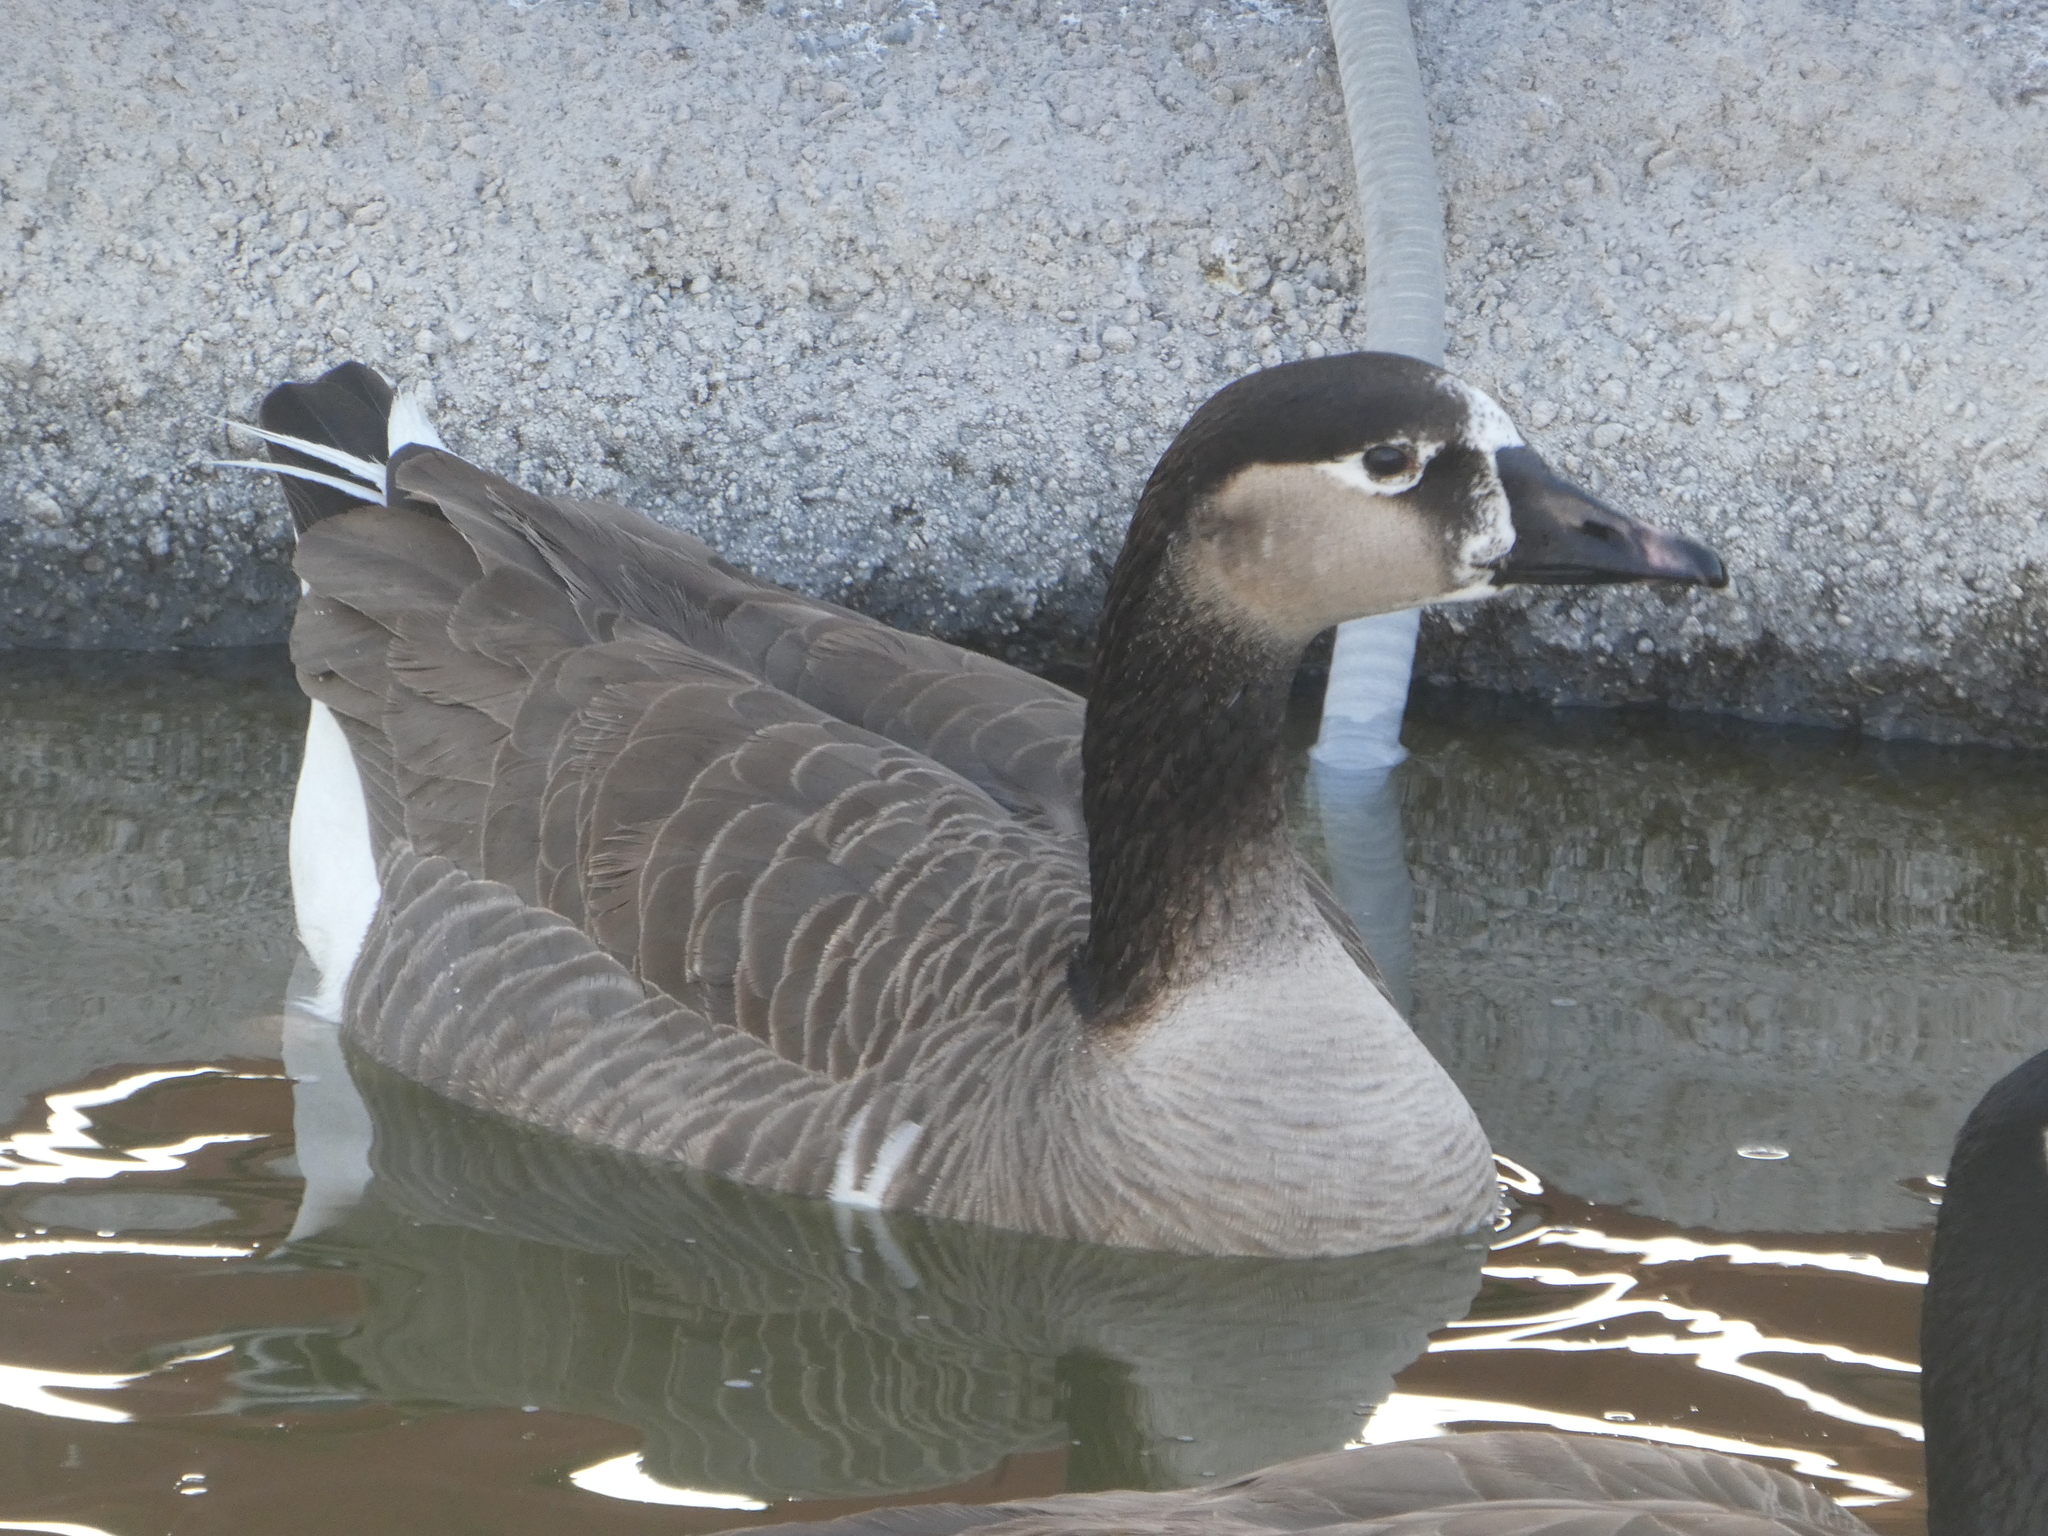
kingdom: Animalia
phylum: Chordata
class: Aves
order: Anseriformes
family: Anatidae
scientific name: Anatidae
